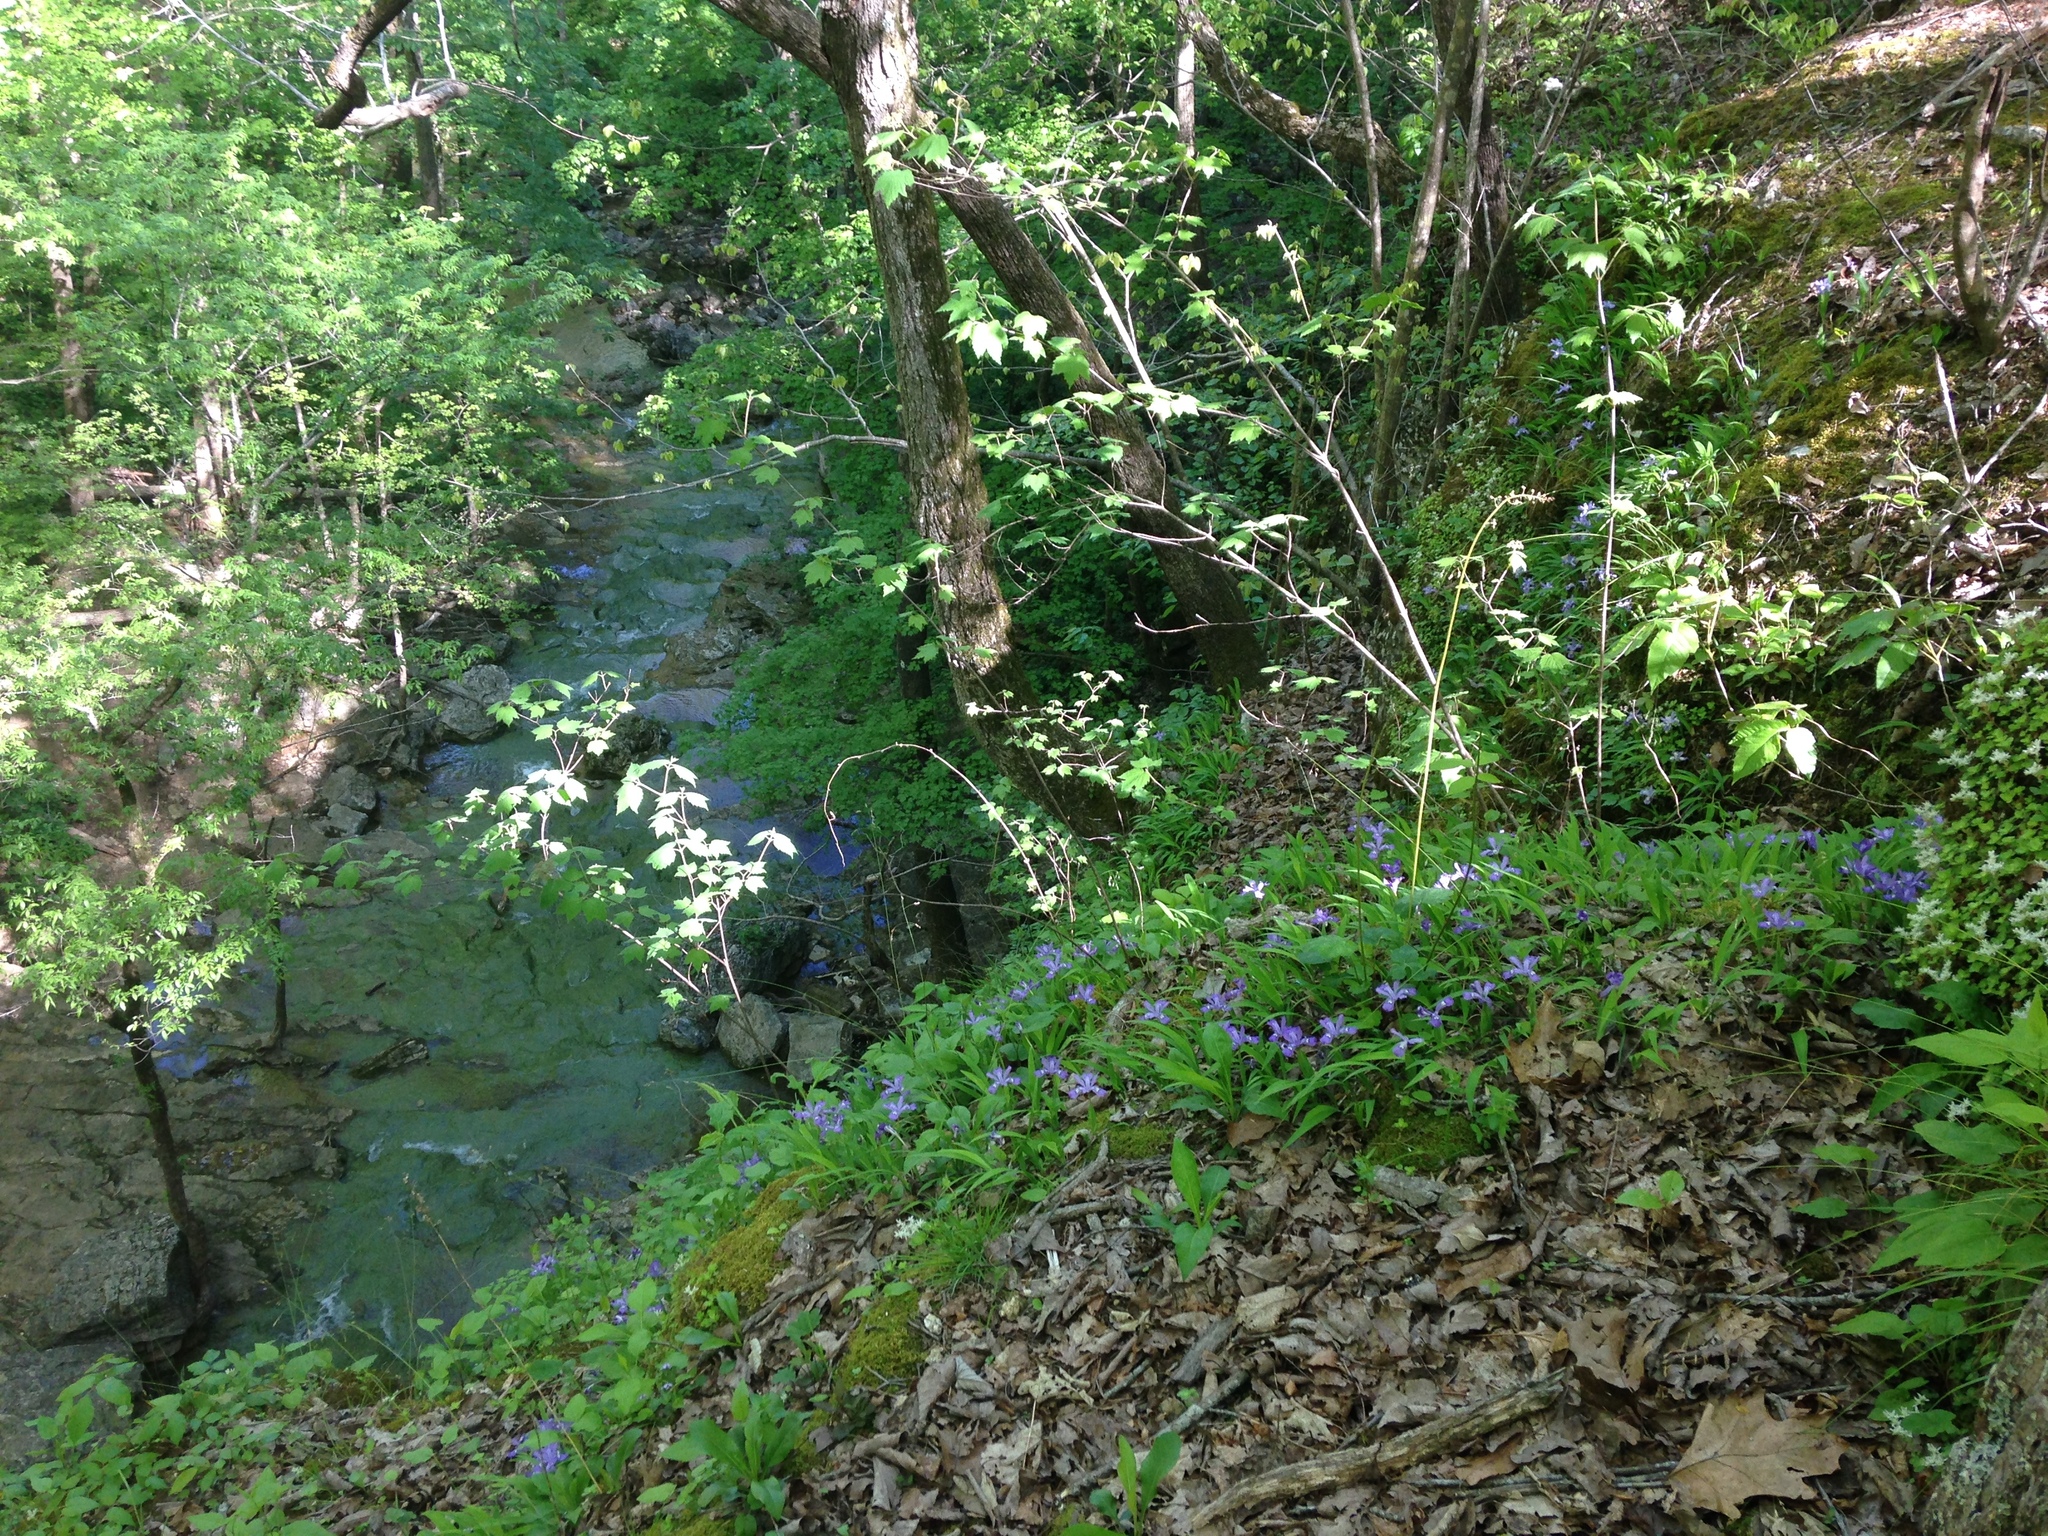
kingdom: Plantae
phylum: Tracheophyta
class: Liliopsida
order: Asparagales
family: Iridaceae
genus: Iris
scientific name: Iris cristata
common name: Crested iris
